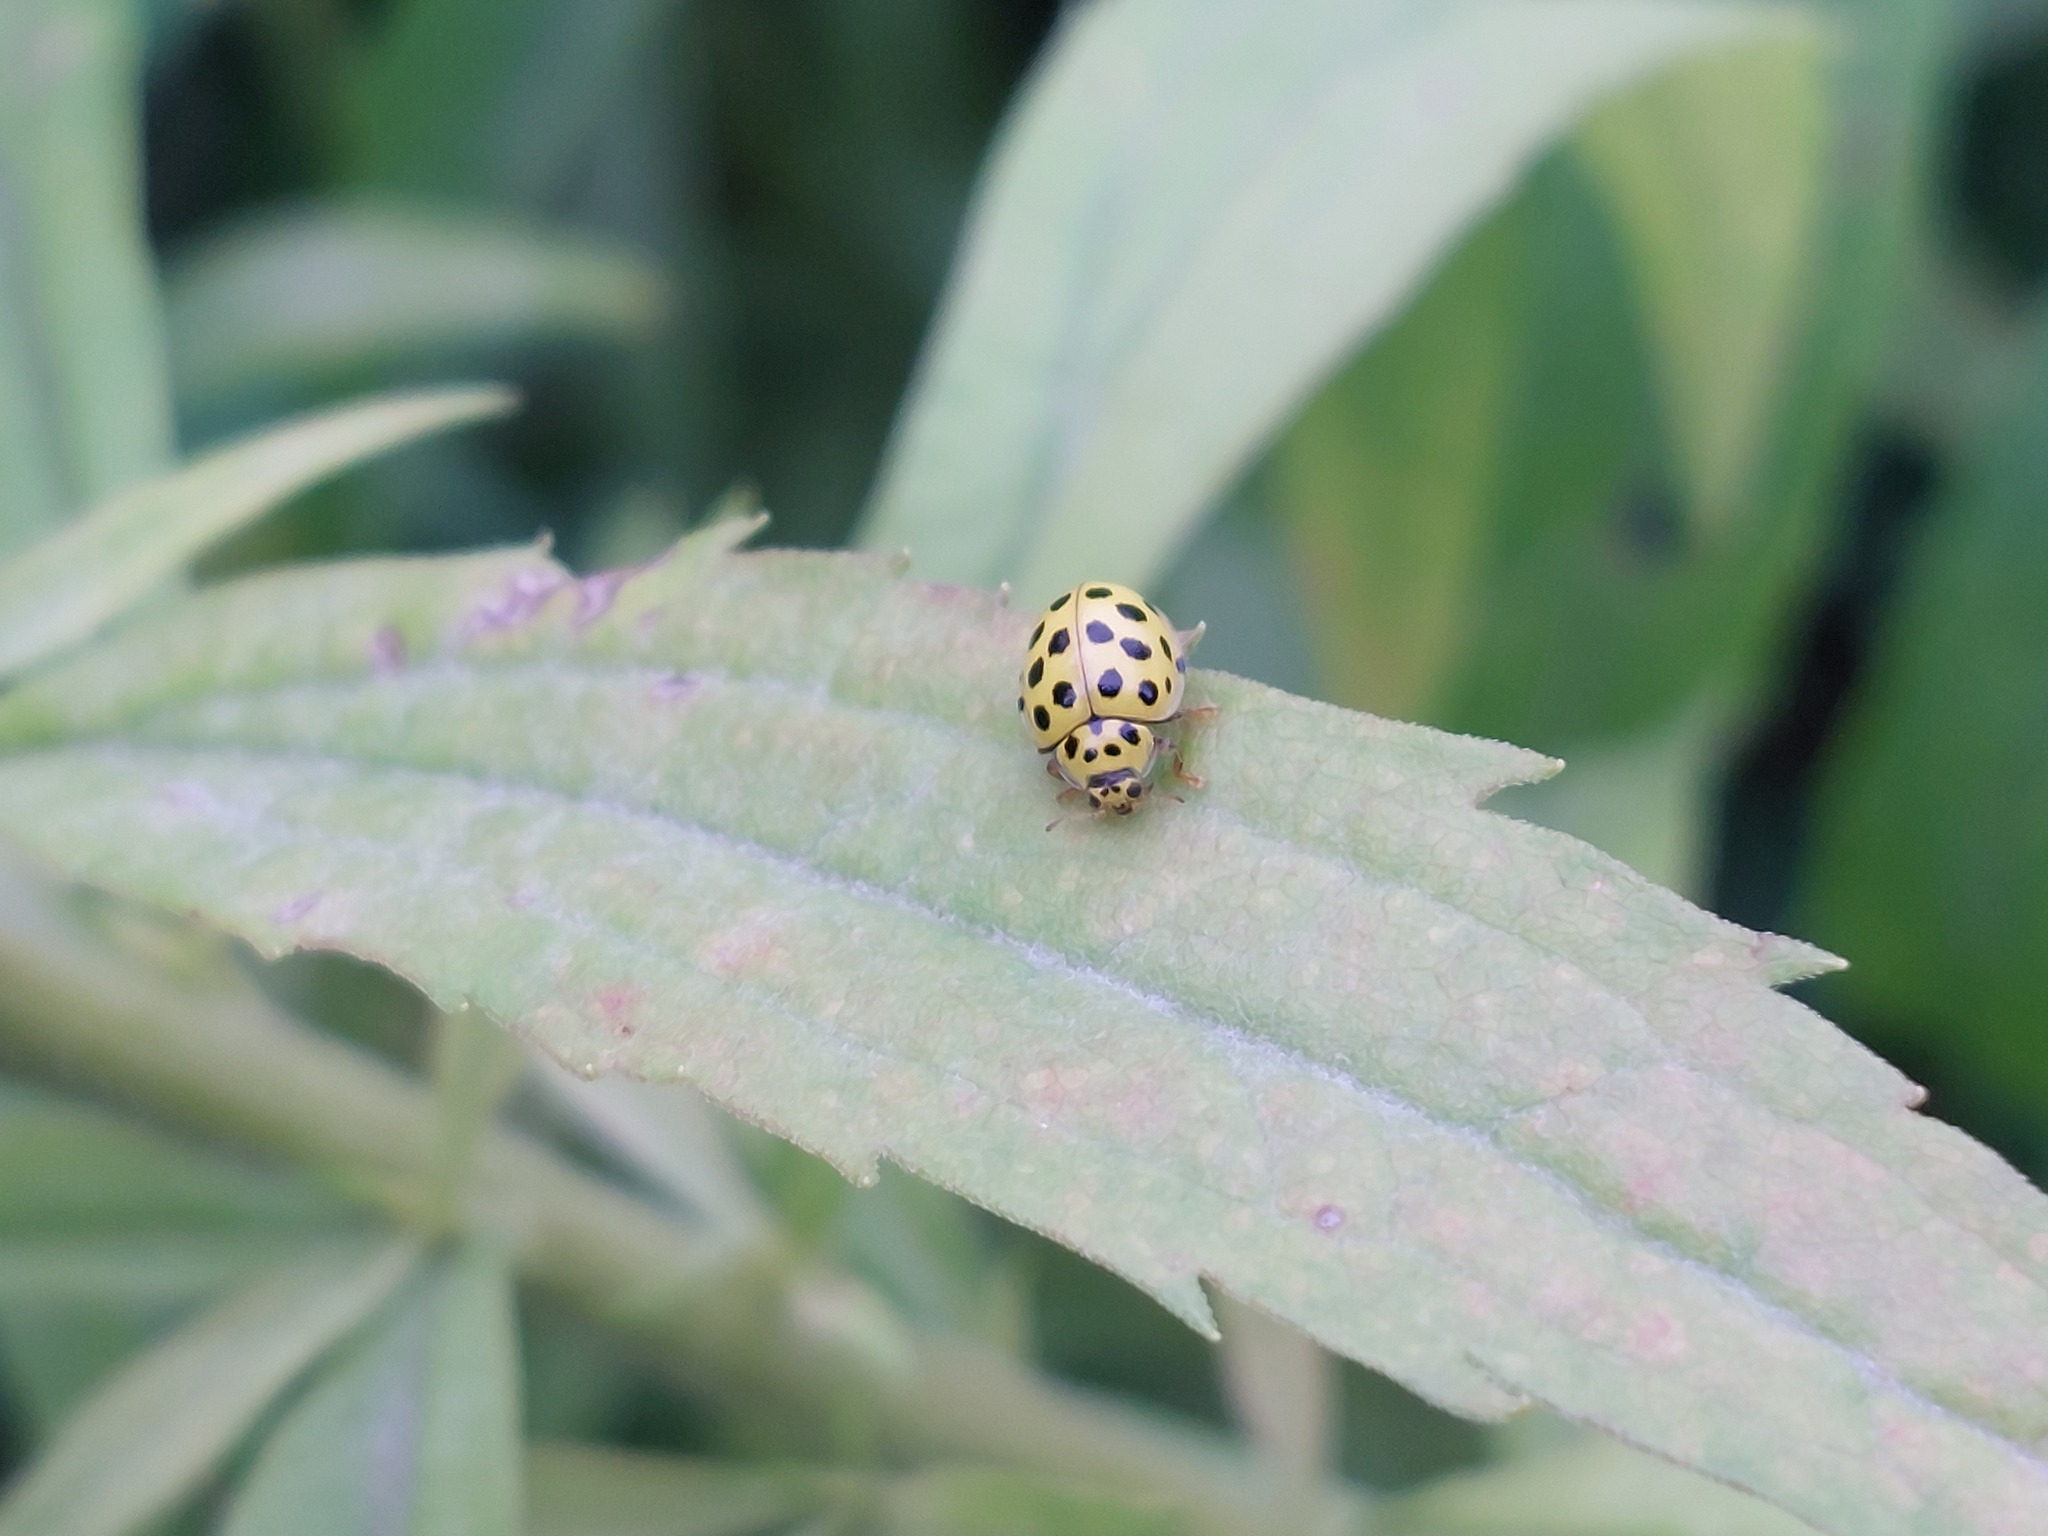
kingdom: Animalia
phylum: Arthropoda
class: Insecta
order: Coleoptera
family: Coccinellidae
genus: Psyllobora
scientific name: Psyllobora vigintiduopunctata
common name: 22-spot ladybird
